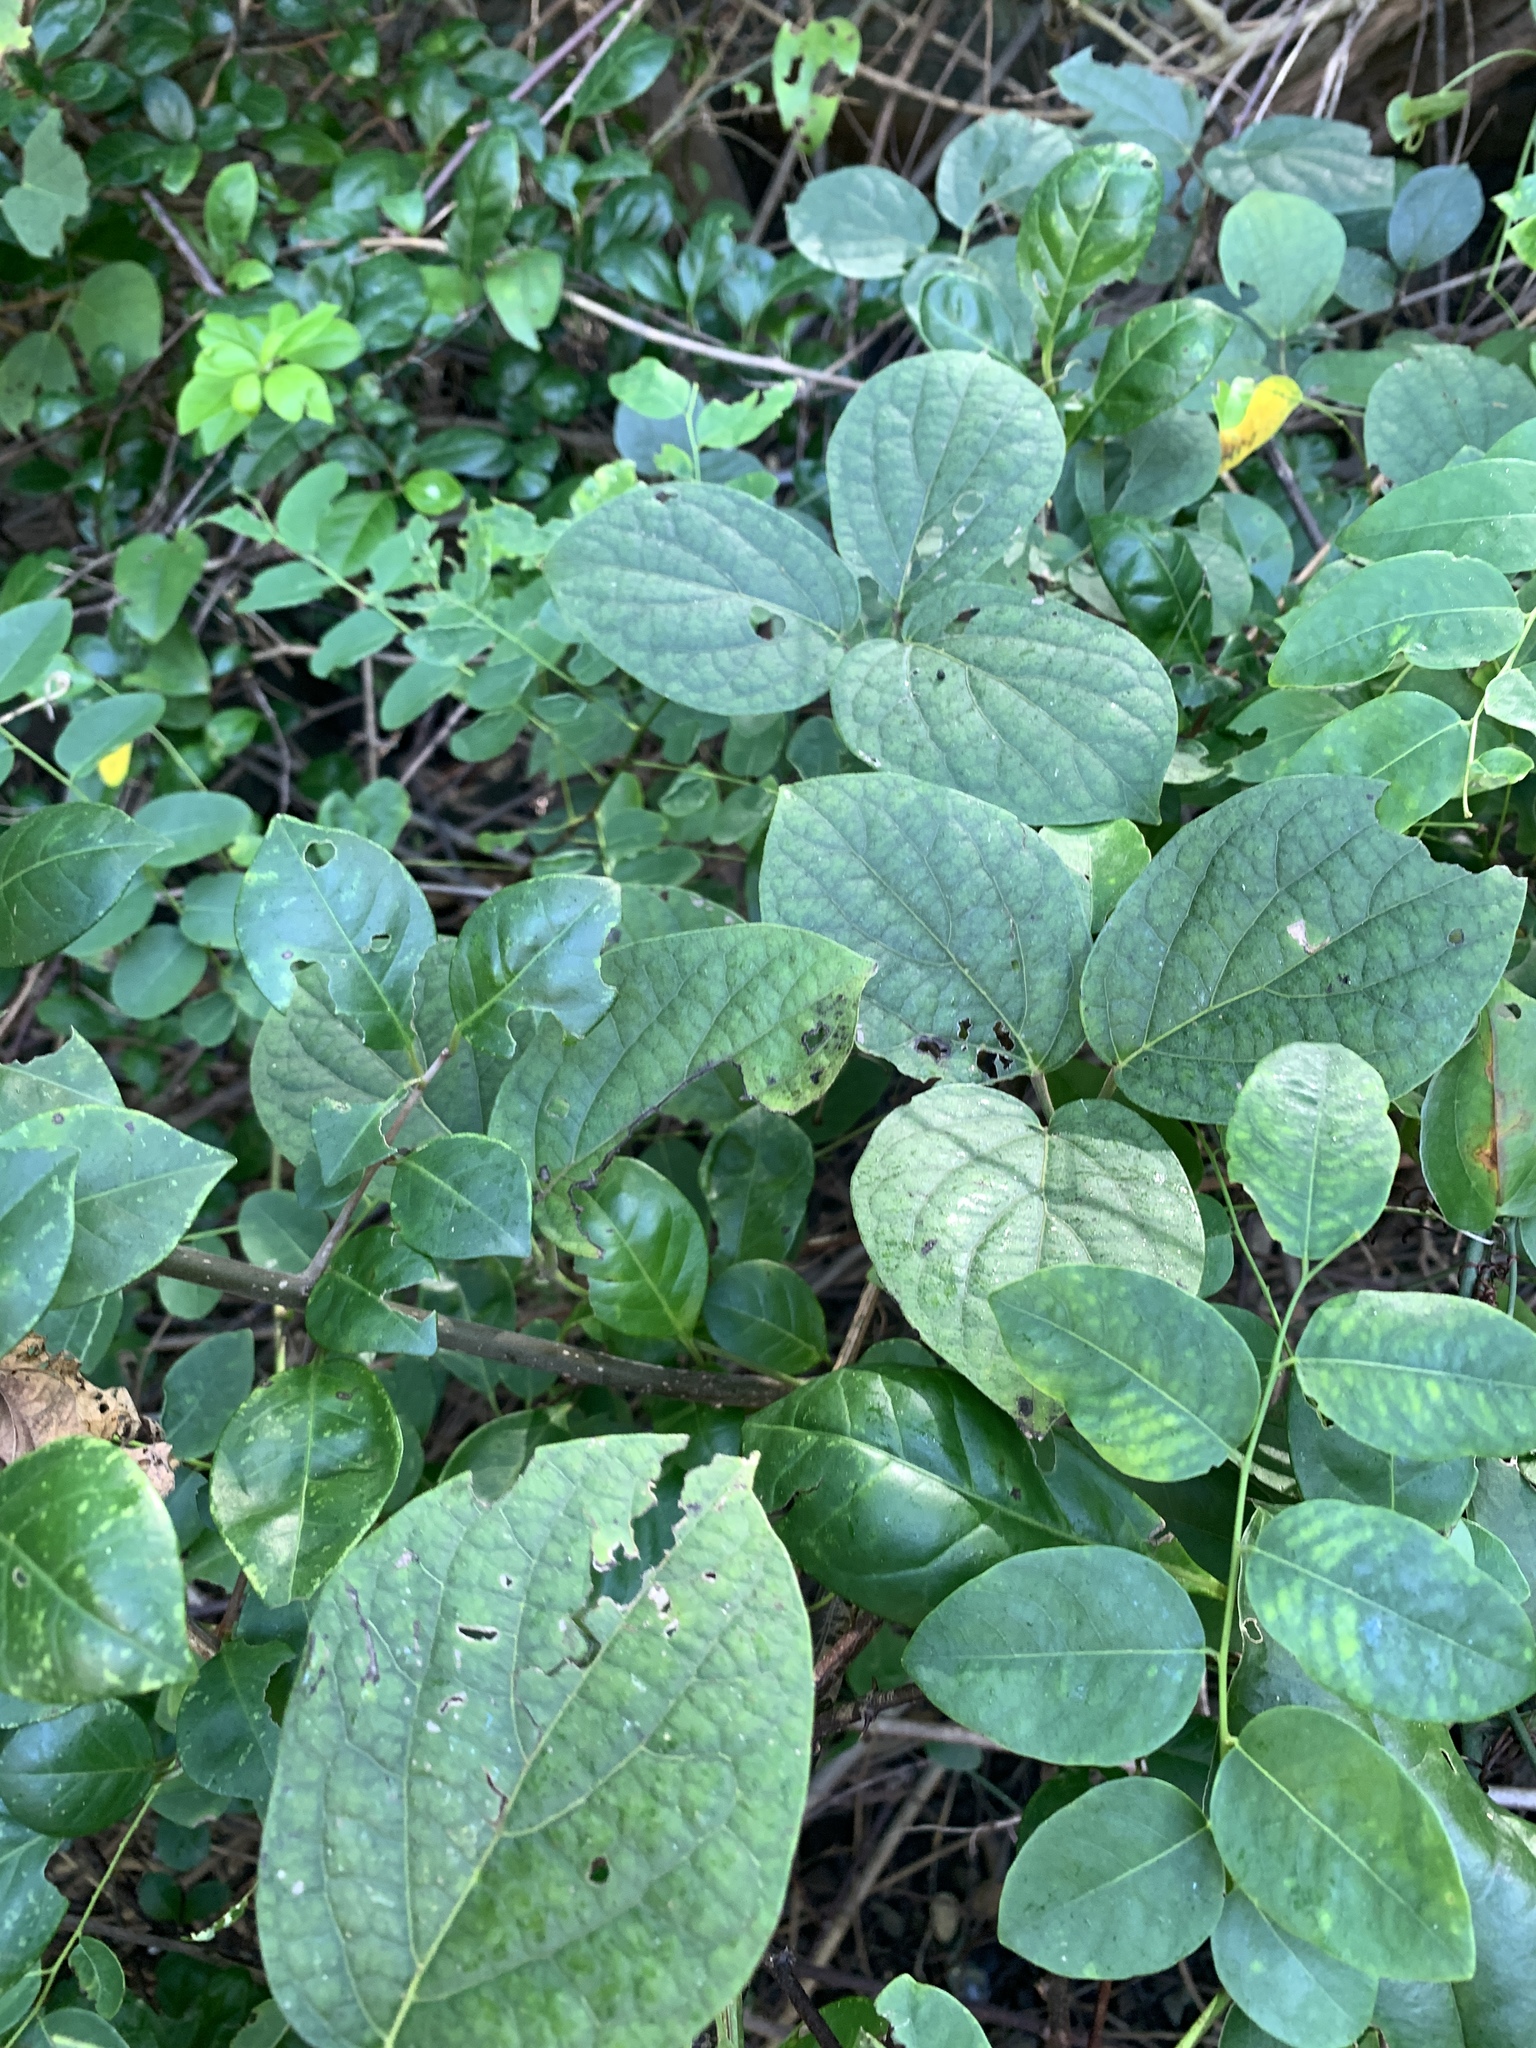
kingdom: Plantae
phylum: Tracheophyta
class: Magnoliopsida
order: Laurales
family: Hernandiaceae
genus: Illigera
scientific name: Illigera luzonensis
